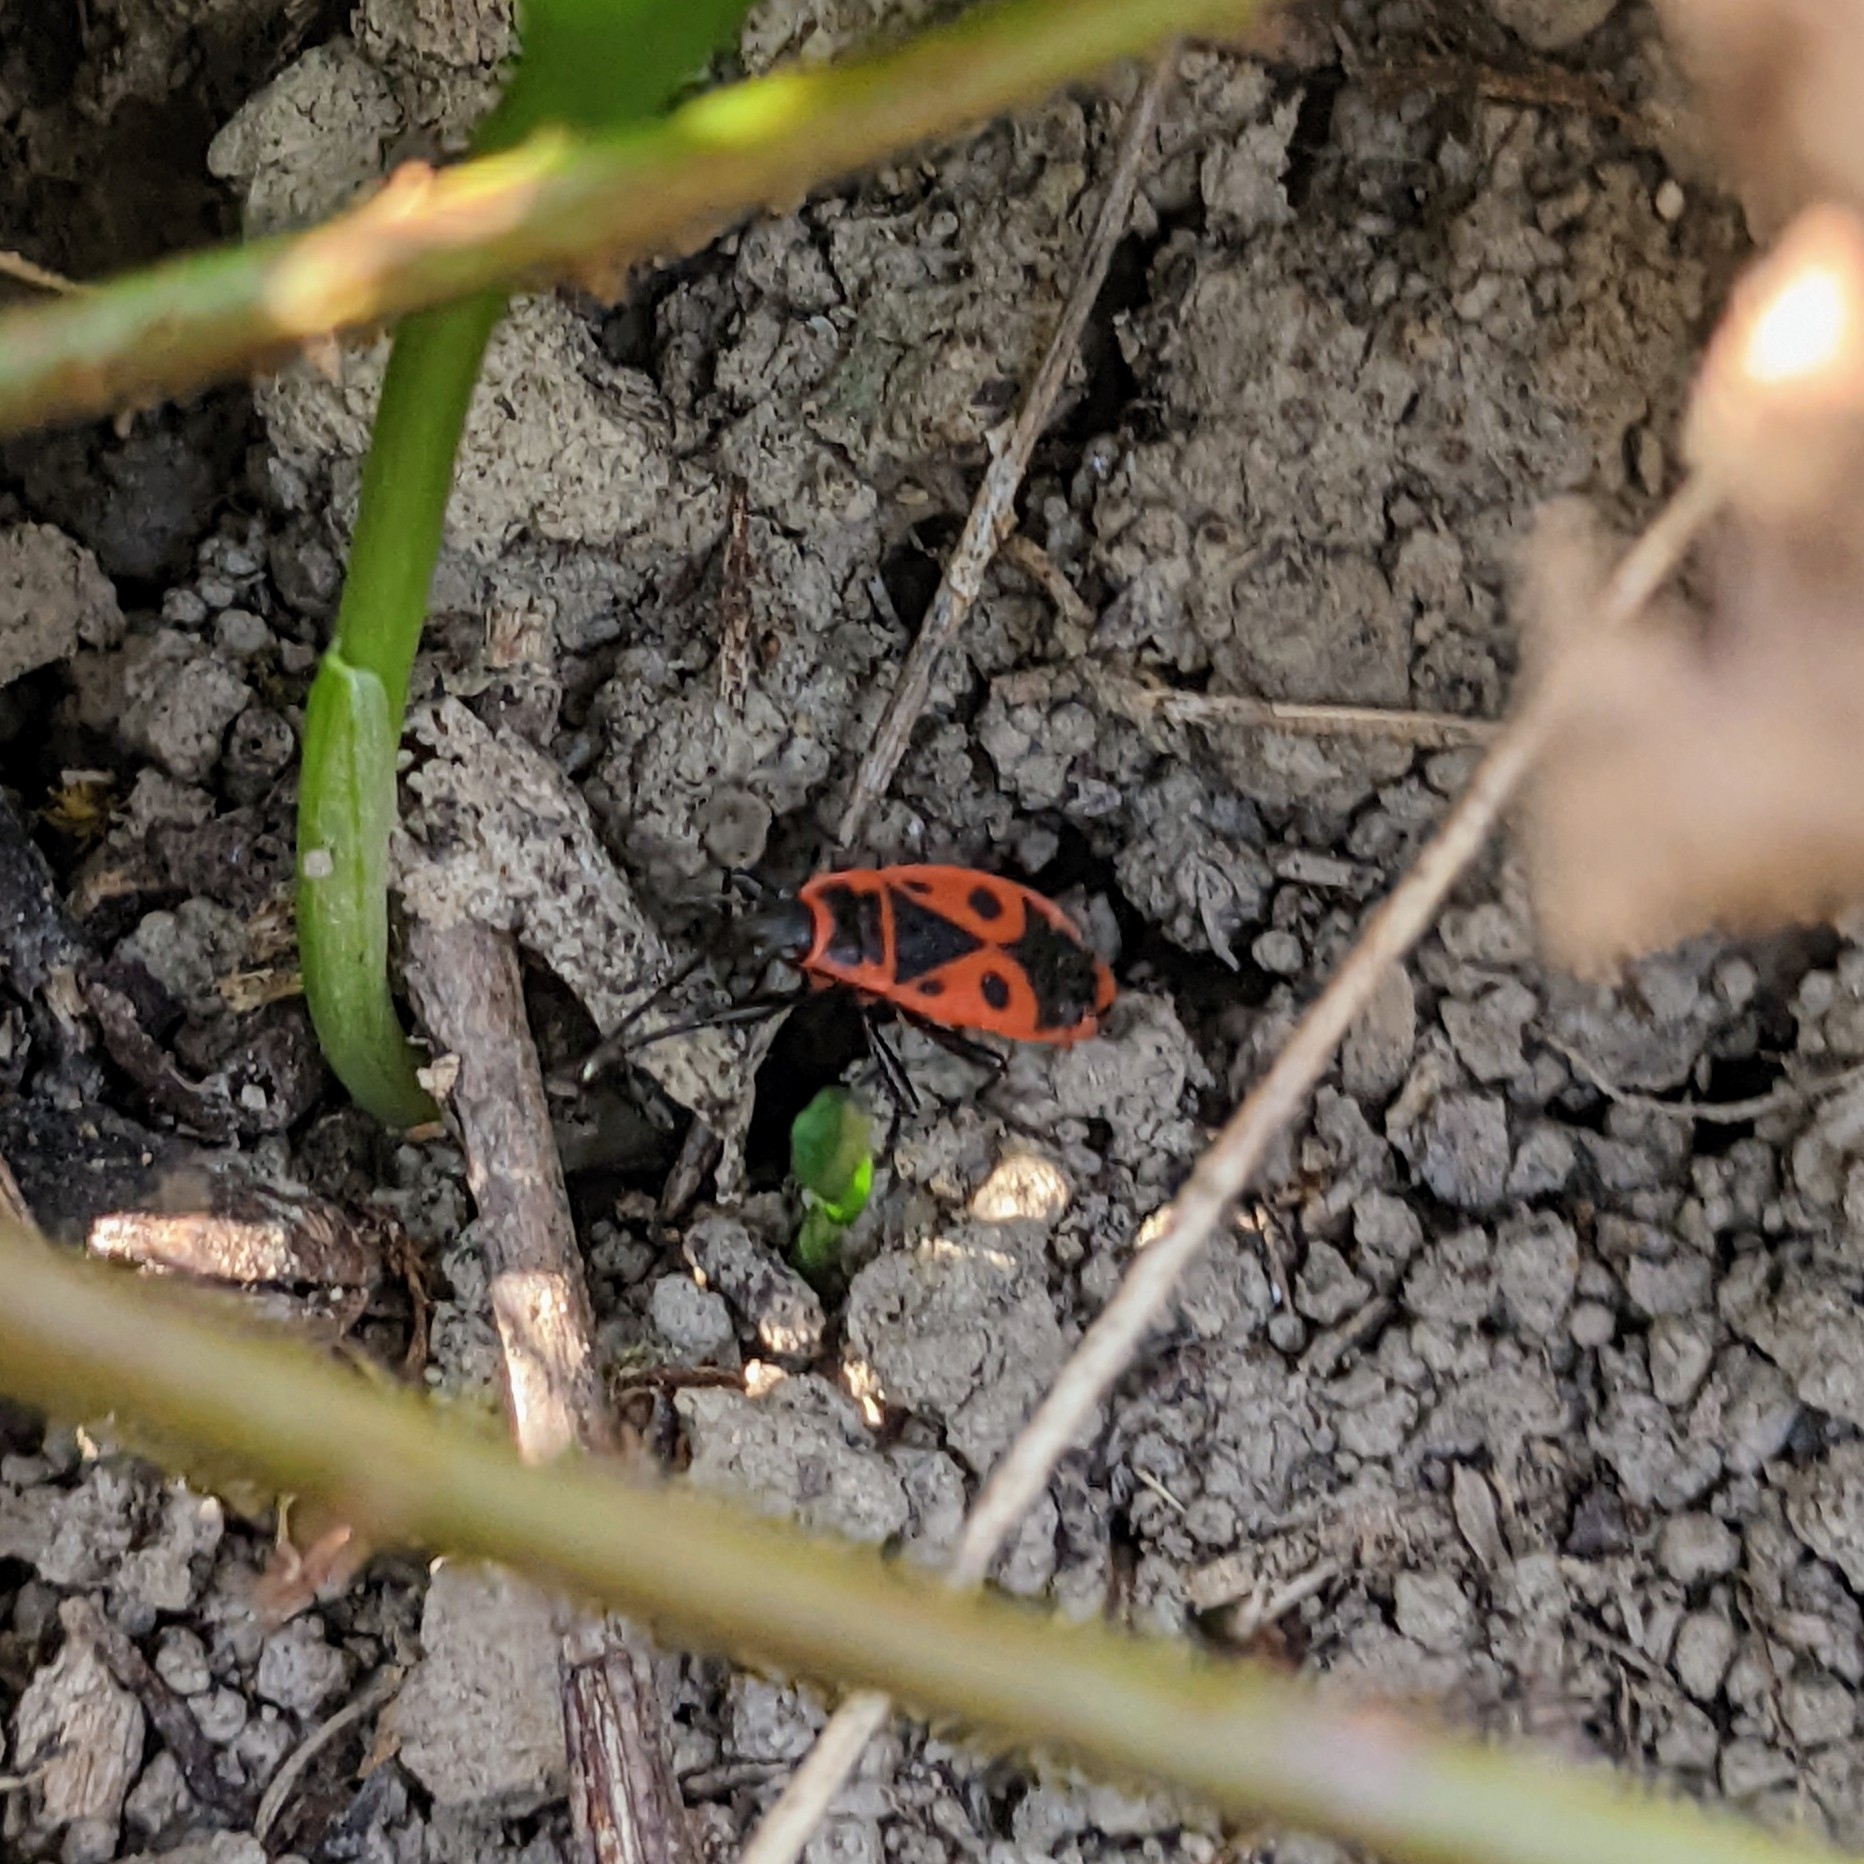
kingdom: Animalia
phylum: Arthropoda
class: Insecta
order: Hemiptera
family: Pyrrhocoridae
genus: Pyrrhocoris
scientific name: Pyrrhocoris apterus
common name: Firebug
